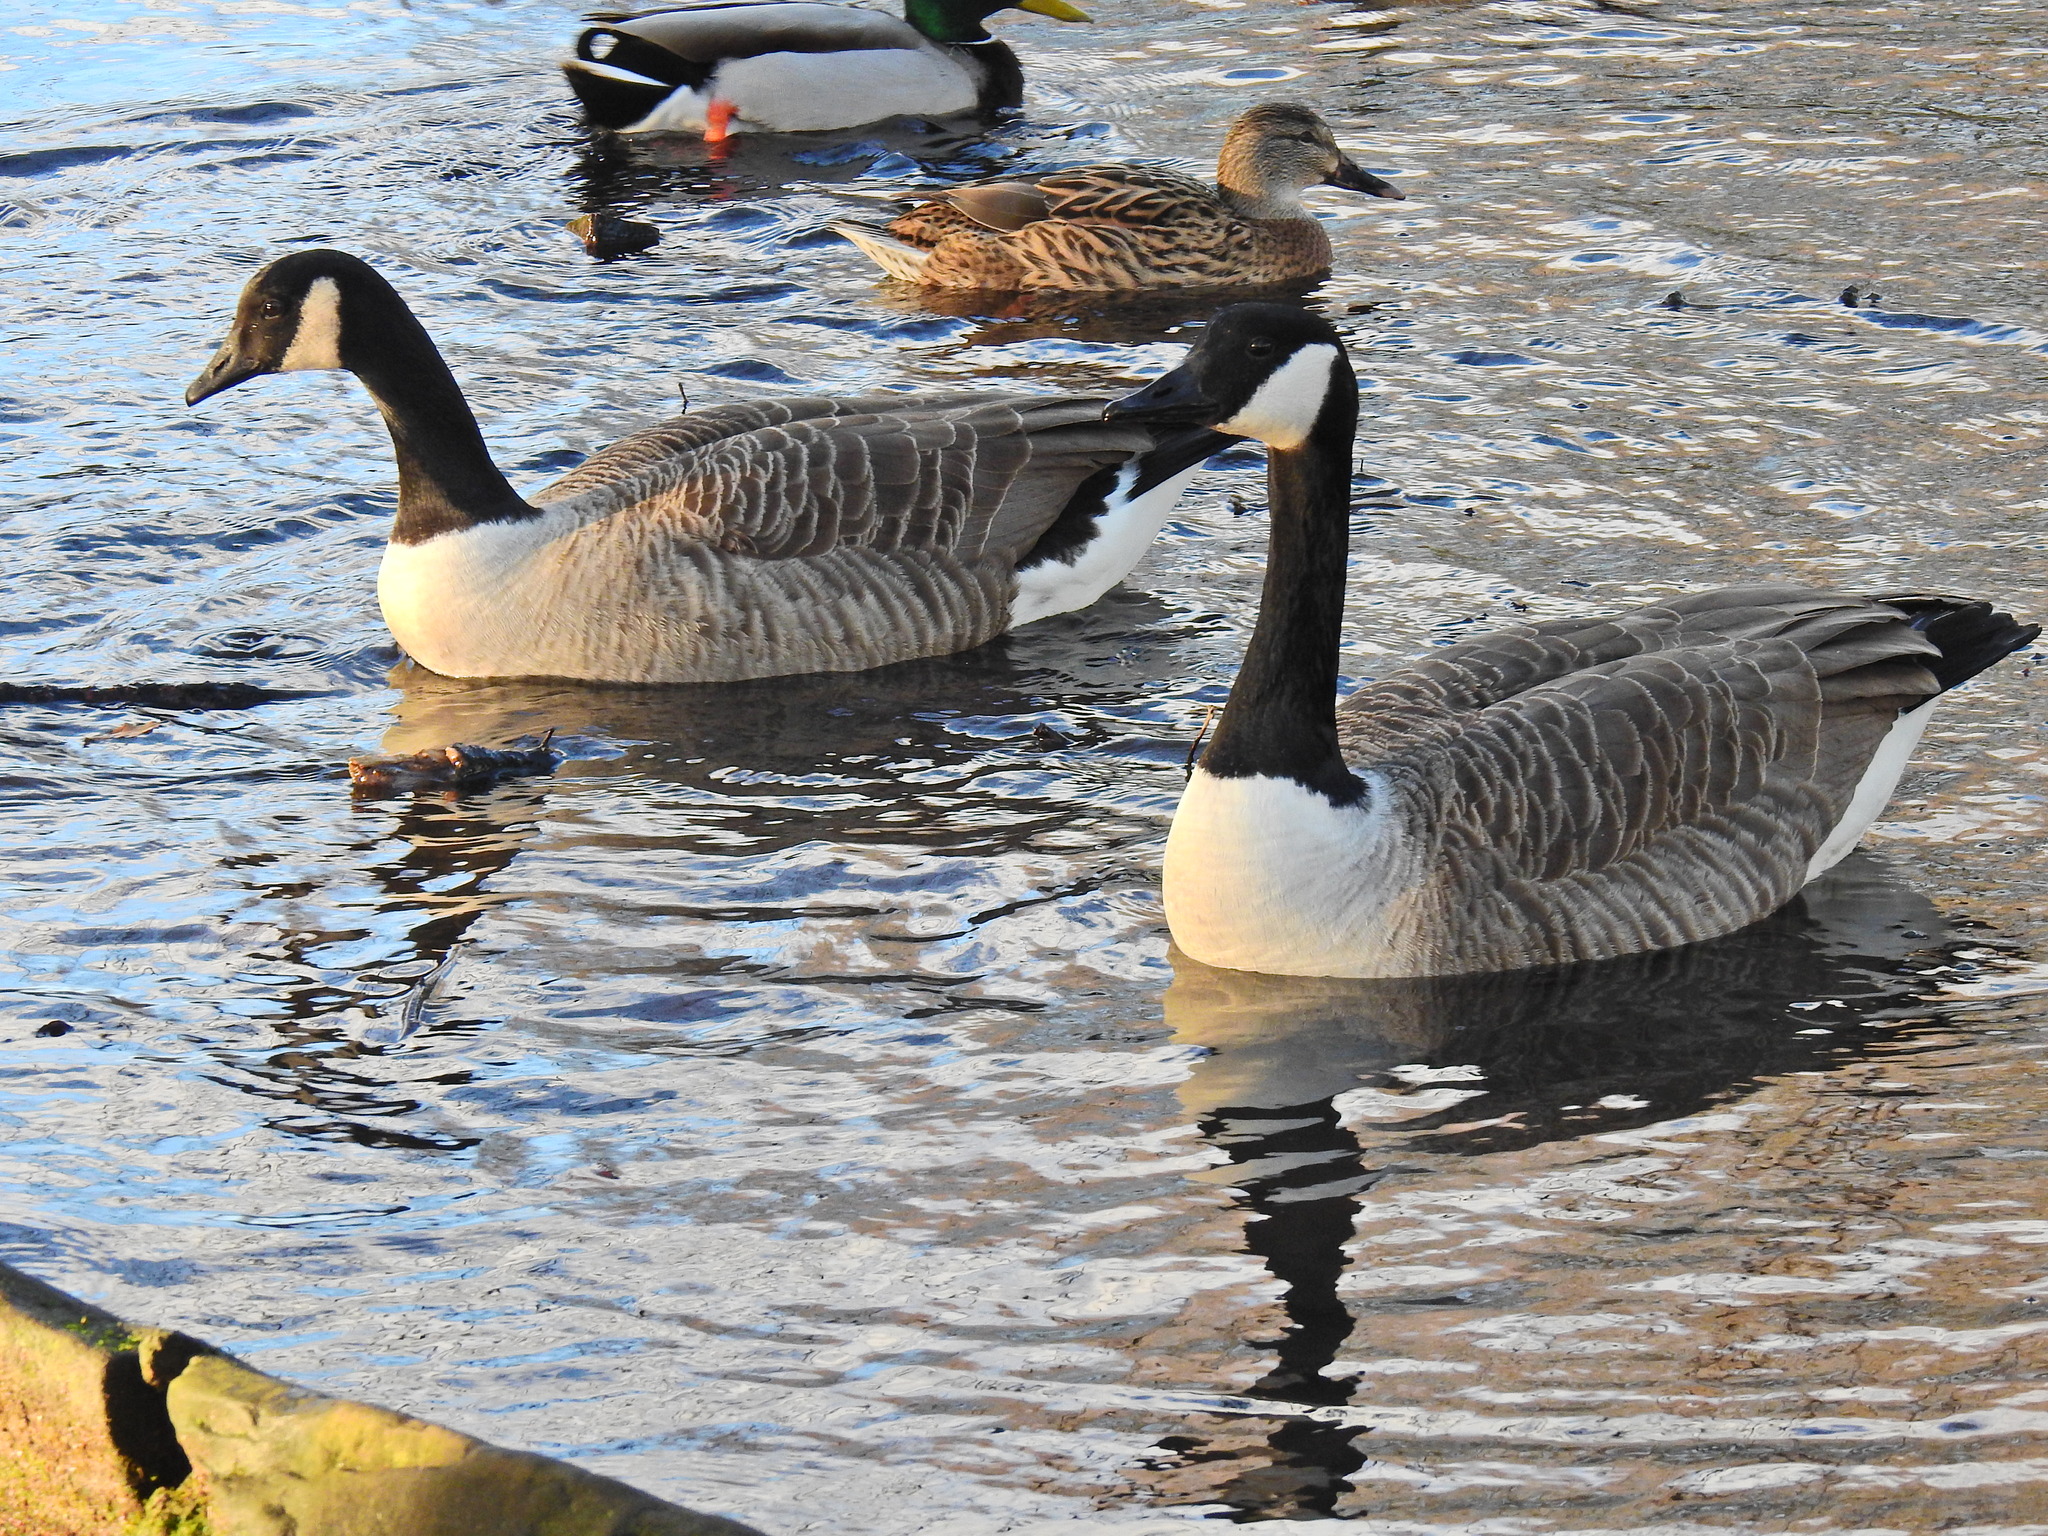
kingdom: Animalia
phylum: Chordata
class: Aves
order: Anseriformes
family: Anatidae
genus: Branta
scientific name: Branta canadensis
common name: Canada goose
